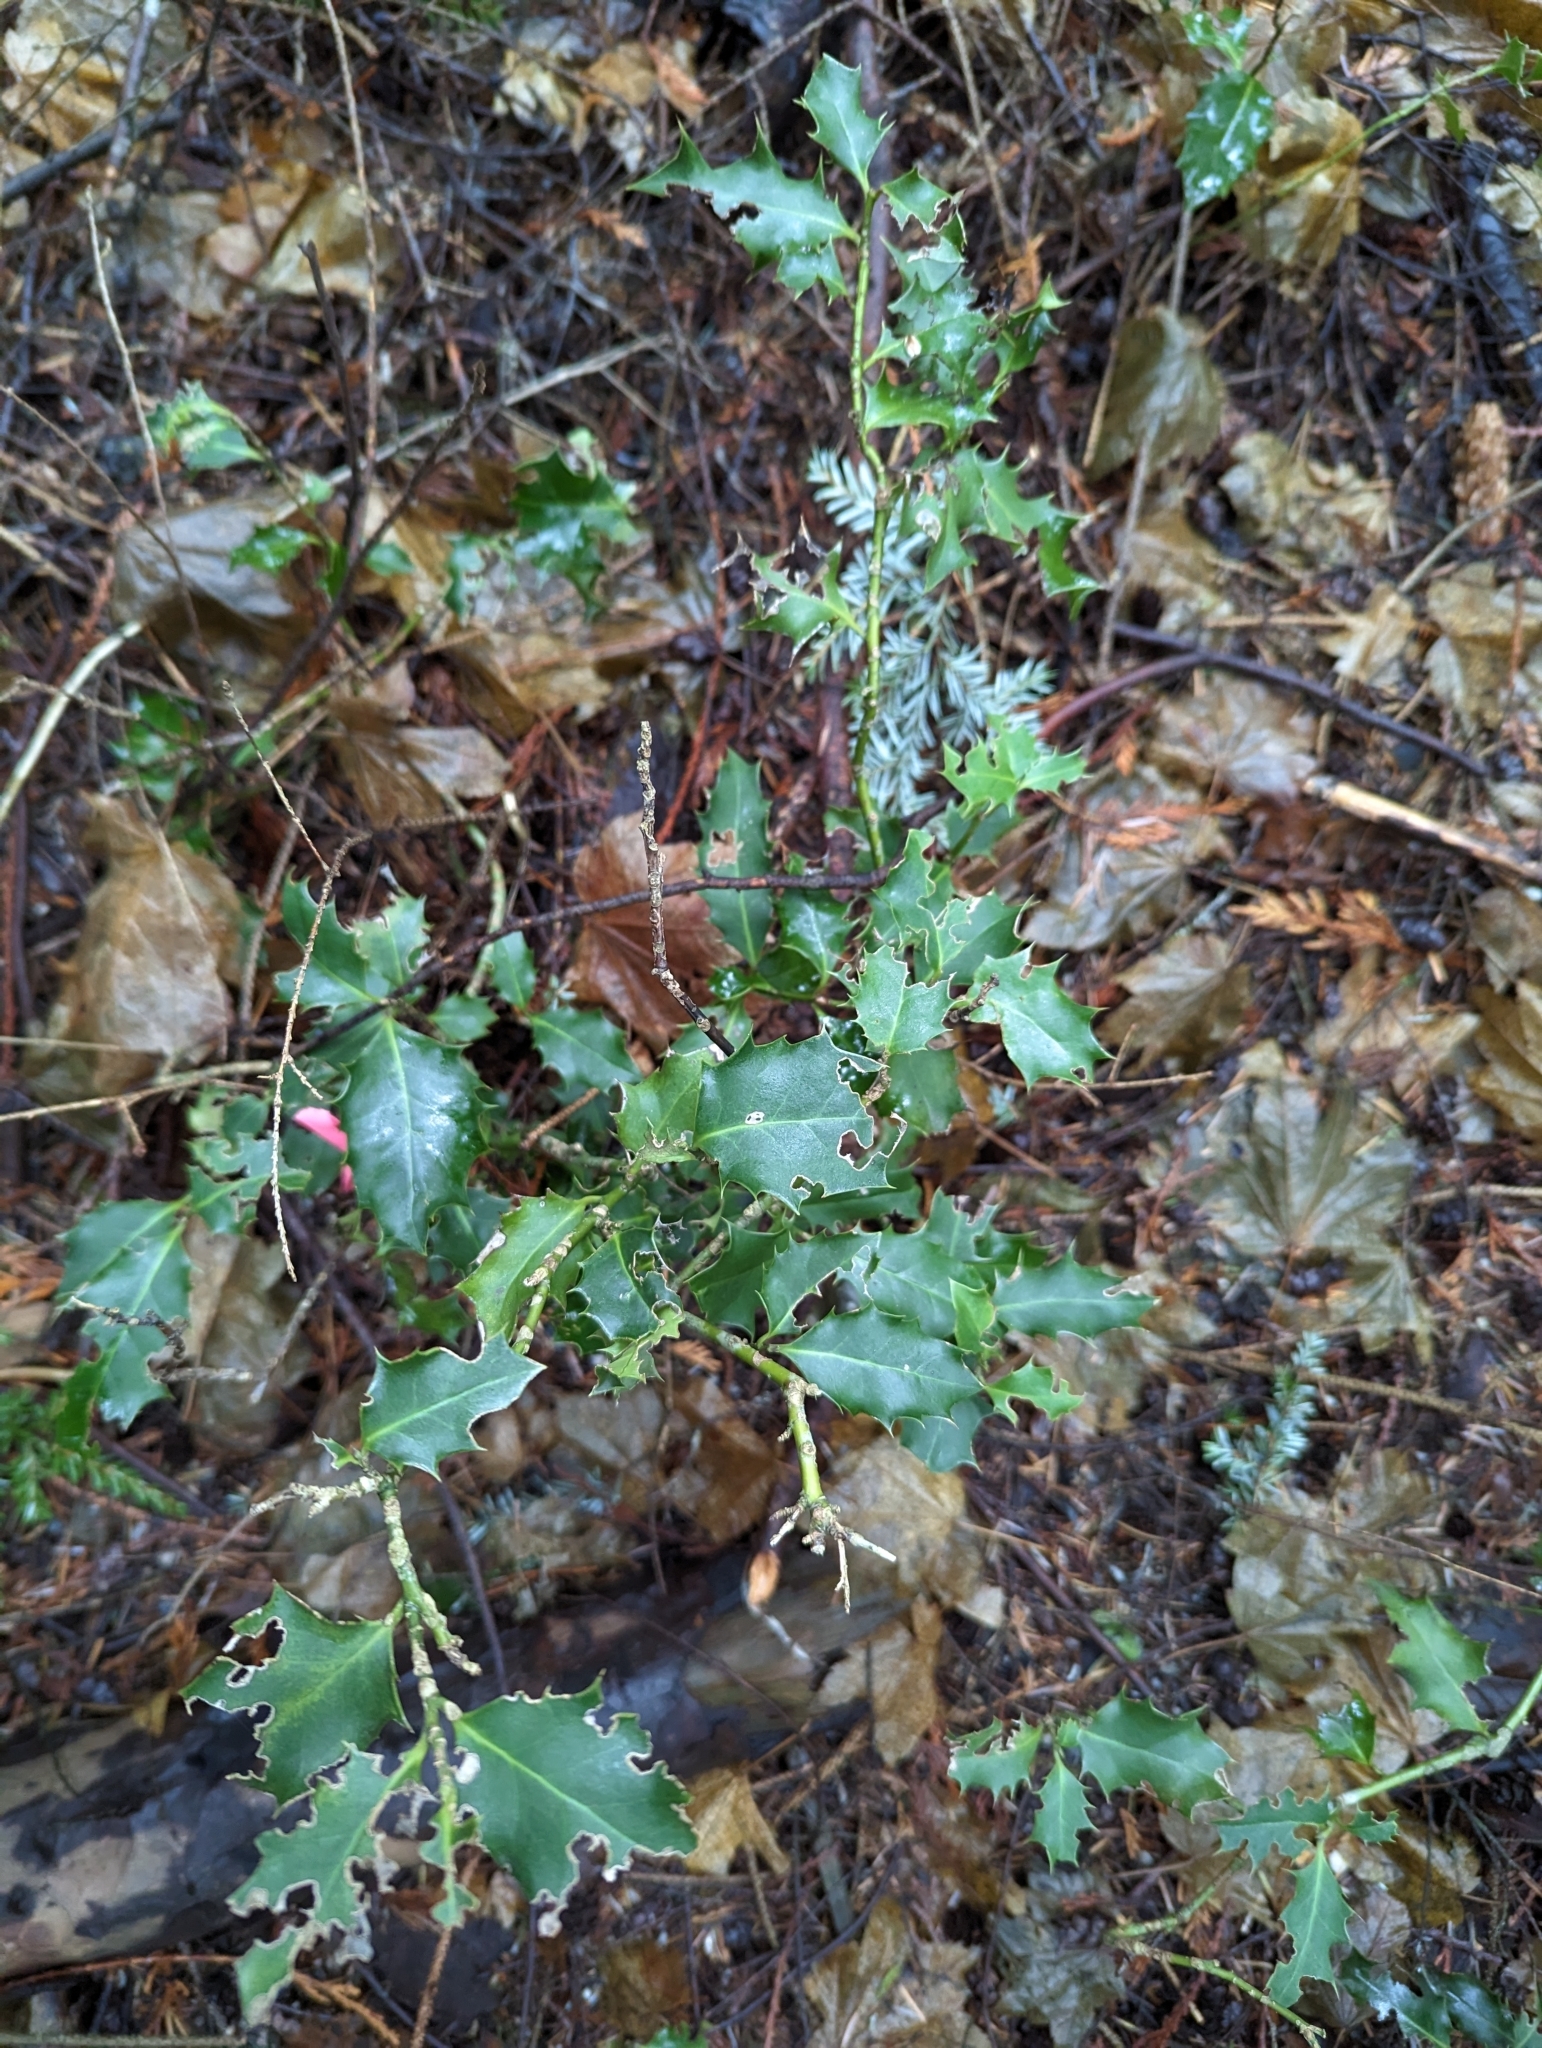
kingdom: Plantae
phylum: Tracheophyta
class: Magnoliopsida
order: Aquifoliales
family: Aquifoliaceae
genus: Ilex
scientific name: Ilex aquifolium
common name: English holly
